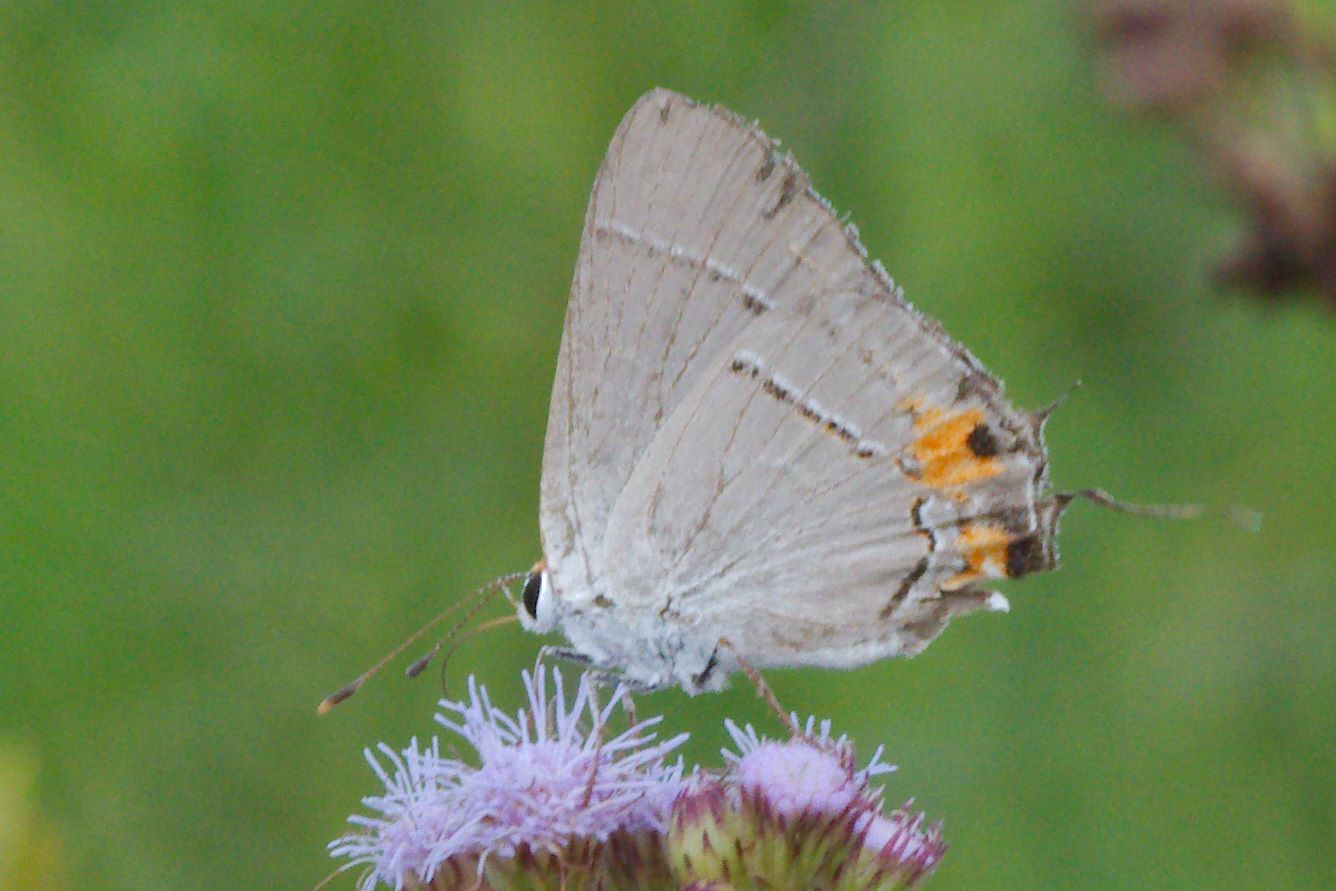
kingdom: Animalia
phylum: Arthropoda
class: Insecta
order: Lepidoptera
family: Lycaenidae
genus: Strymon
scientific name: Strymon melinus
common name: Gray hairstreak
